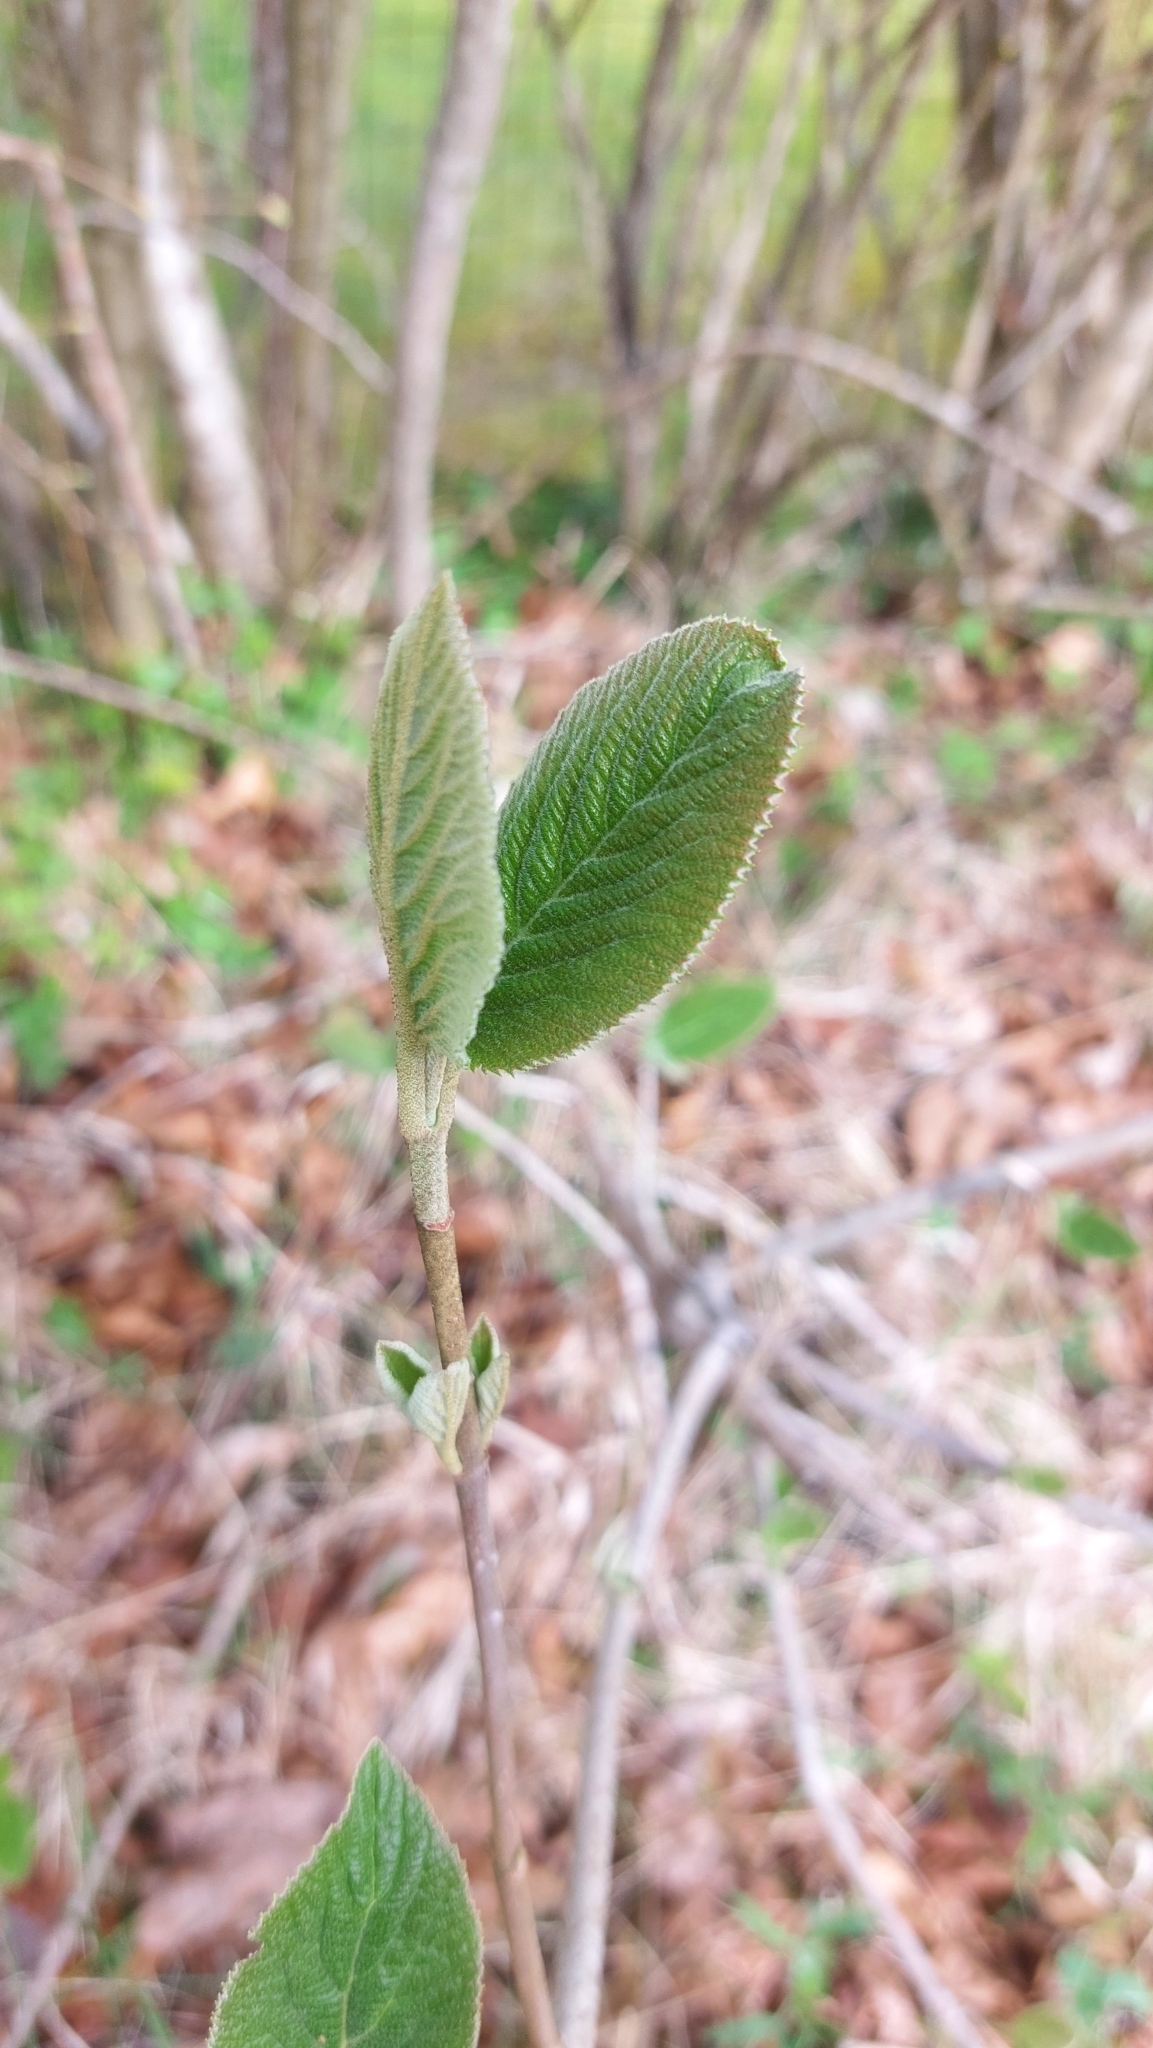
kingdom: Plantae
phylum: Tracheophyta
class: Magnoliopsida
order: Dipsacales
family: Viburnaceae
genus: Viburnum
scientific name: Viburnum lantana
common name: Wayfaring tree
